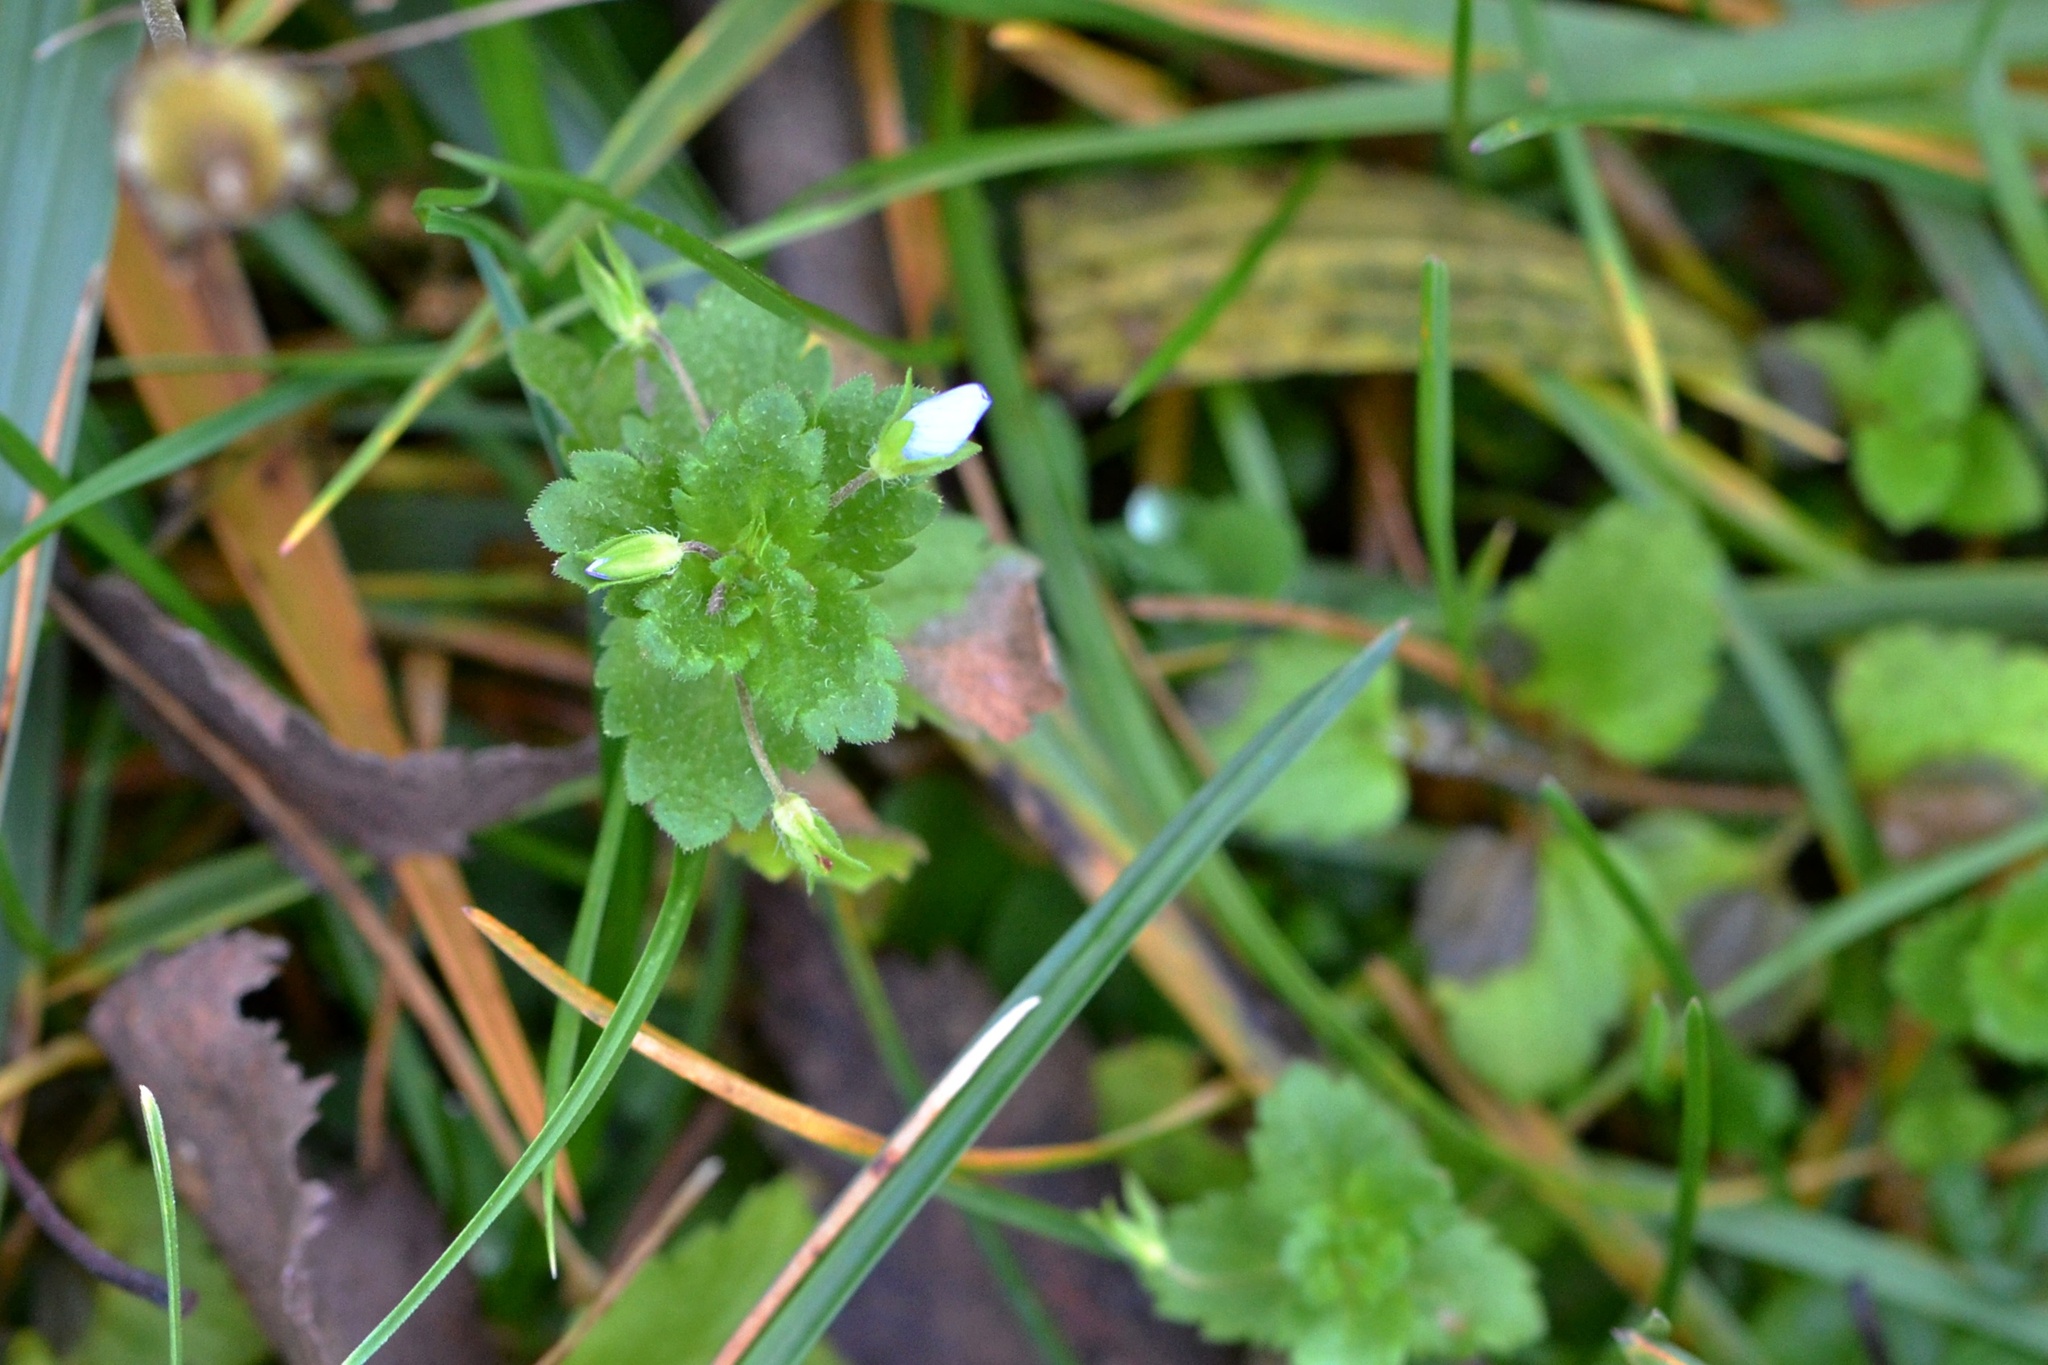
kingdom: Plantae
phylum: Tracheophyta
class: Magnoliopsida
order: Lamiales
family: Plantaginaceae
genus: Veronica
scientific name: Veronica persica
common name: Common field-speedwell
